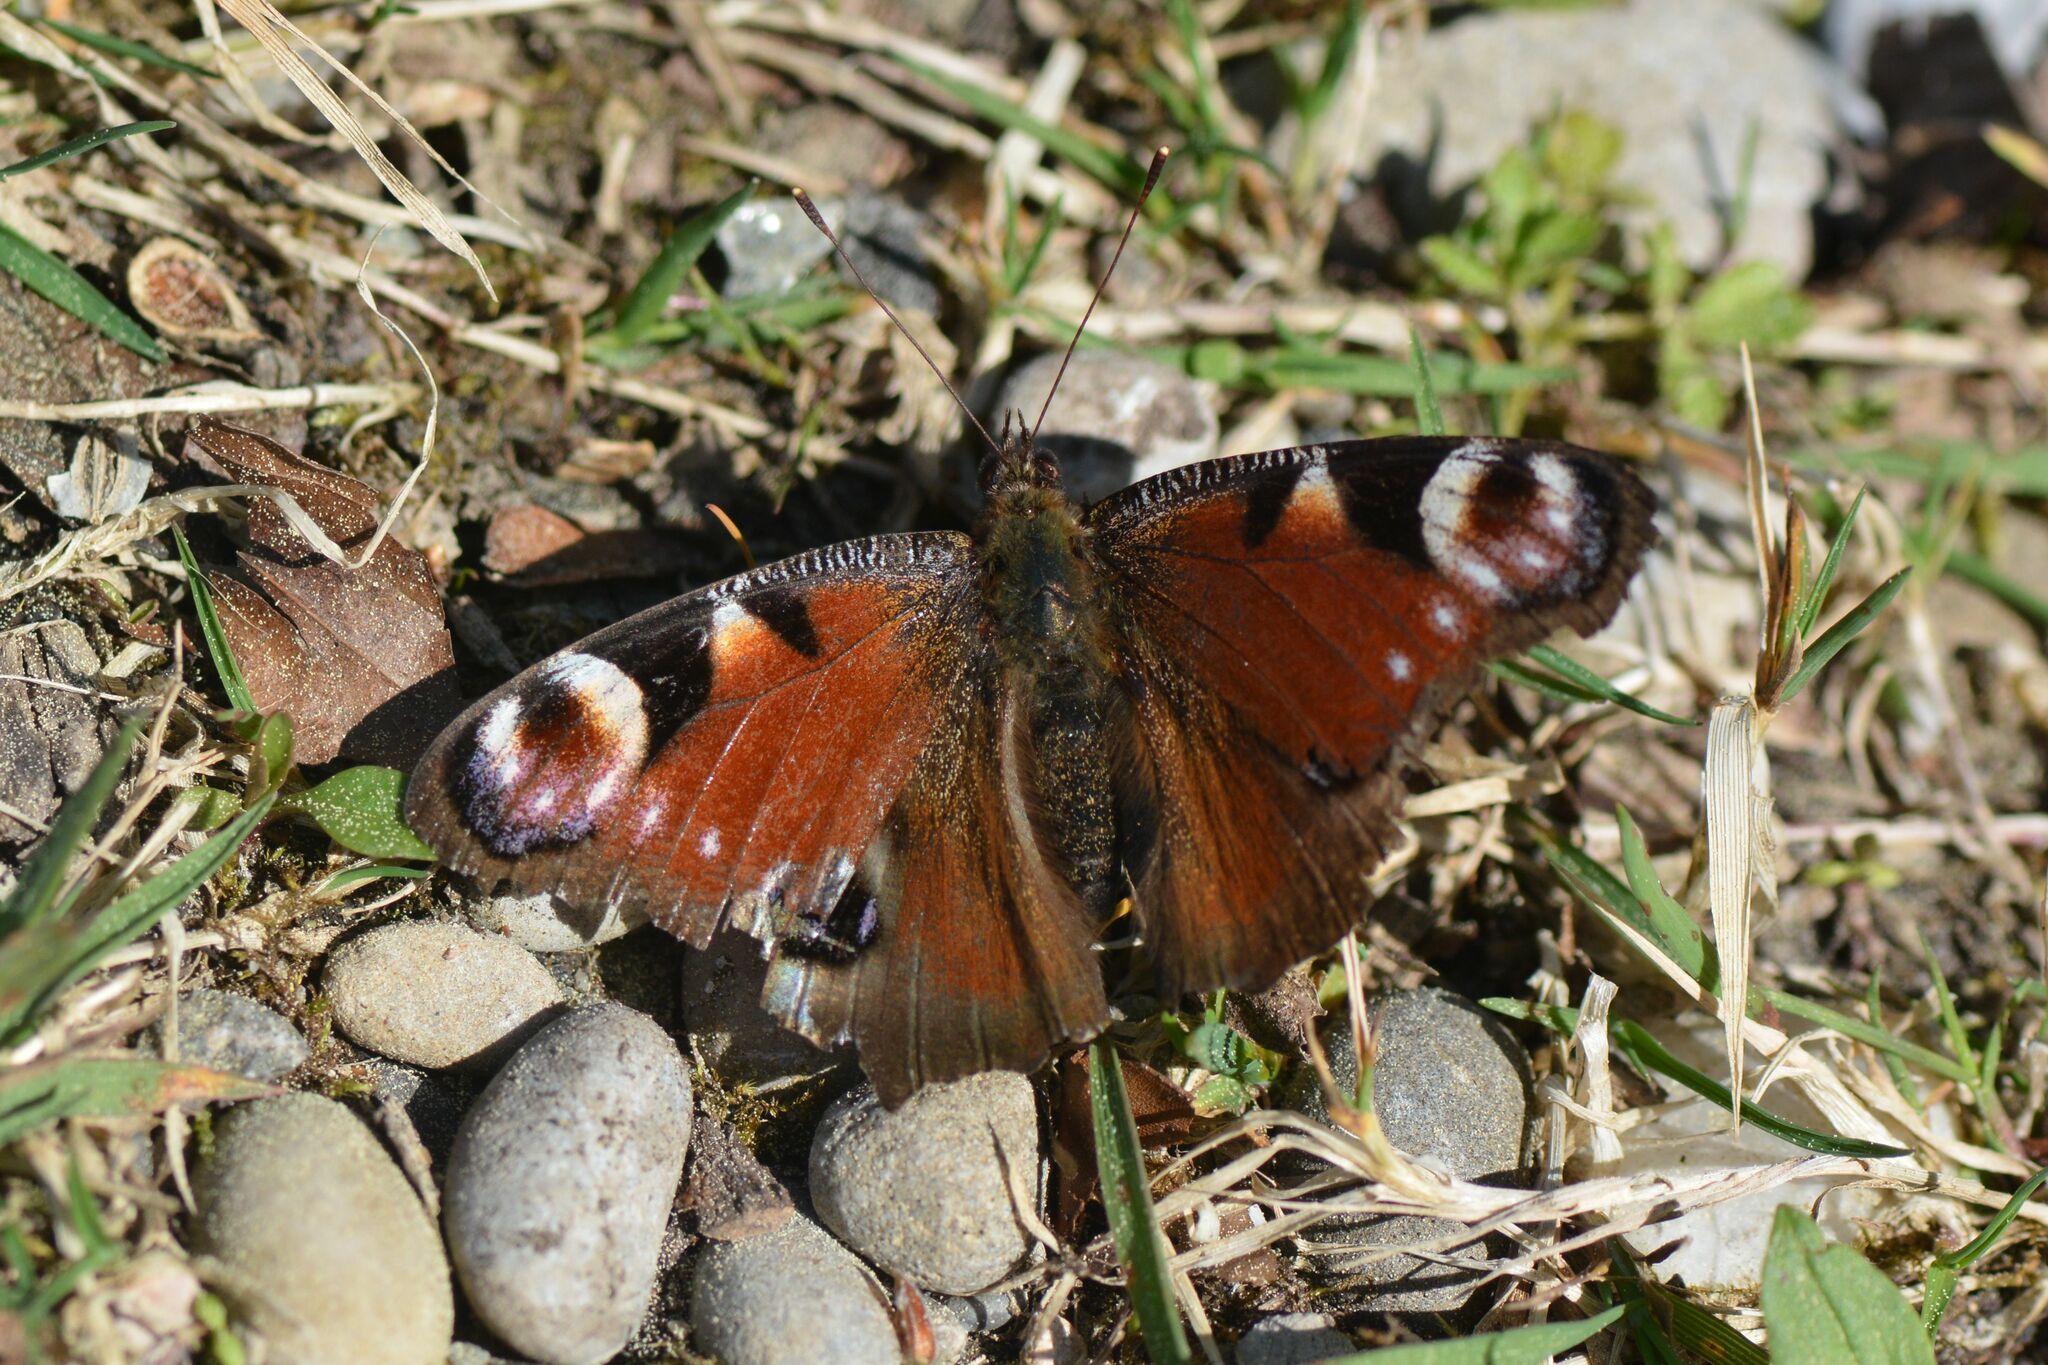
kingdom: Animalia
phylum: Arthropoda
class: Insecta
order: Lepidoptera
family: Nymphalidae
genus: Aglais
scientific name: Aglais io
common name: Peacock
